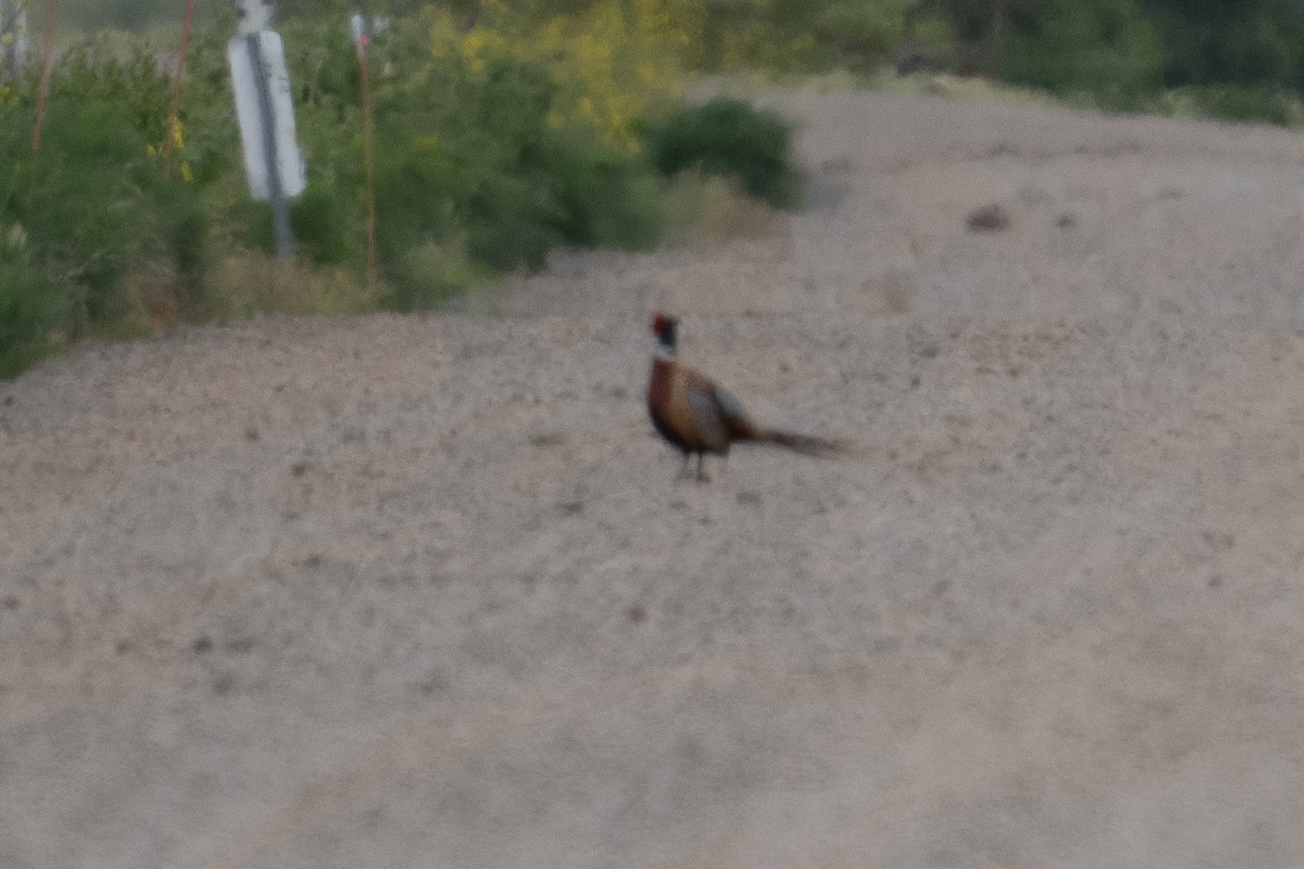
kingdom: Animalia
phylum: Chordata
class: Aves
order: Galliformes
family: Phasianidae
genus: Phasianus
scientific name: Phasianus colchicus
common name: Common pheasant
